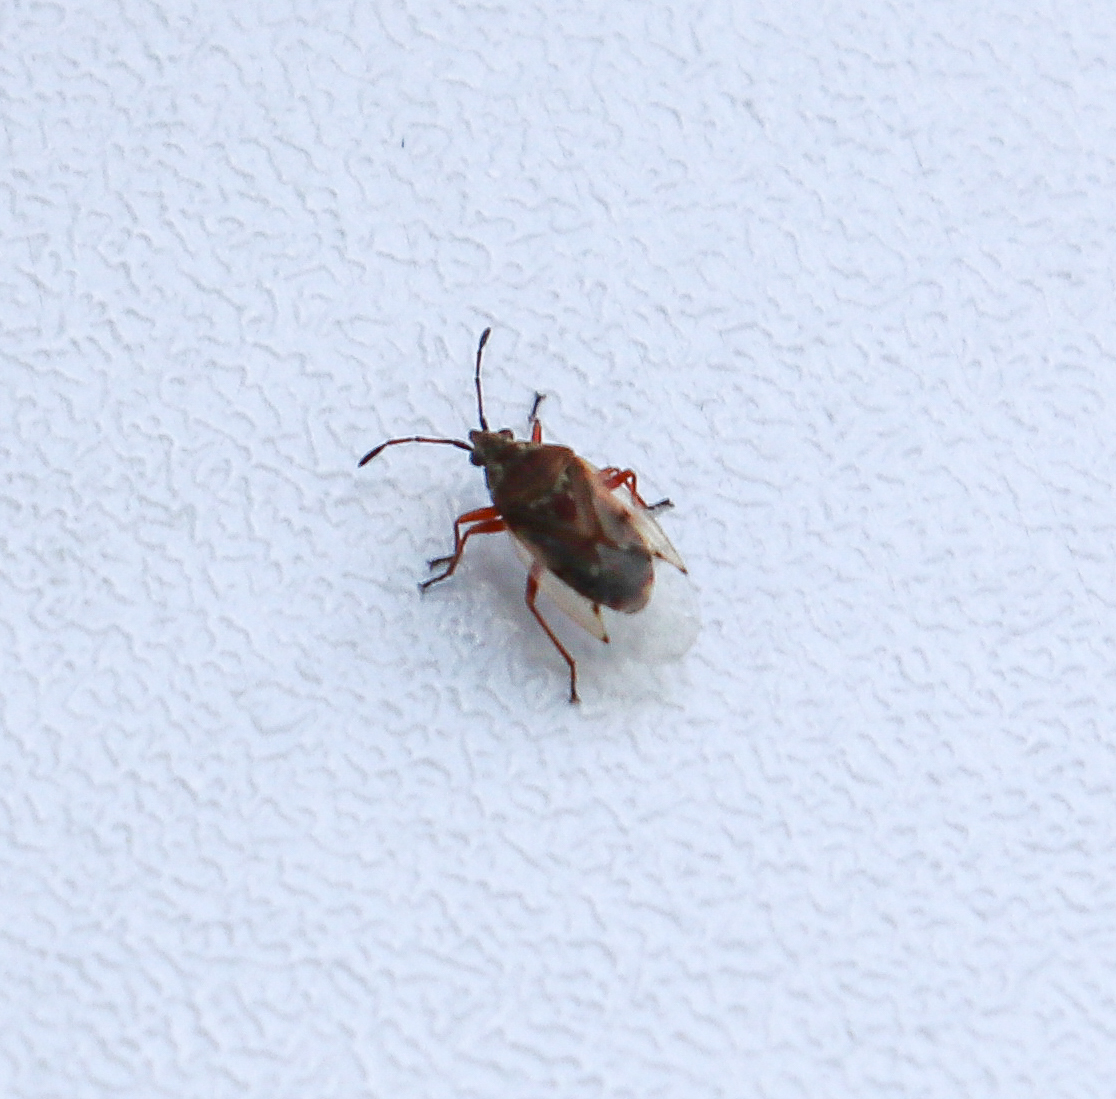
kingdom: Animalia
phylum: Arthropoda
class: Insecta
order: Hemiptera
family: Lygaeidae
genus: Kleidocerys
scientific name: Kleidocerys resedae
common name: Birch catkin bug
